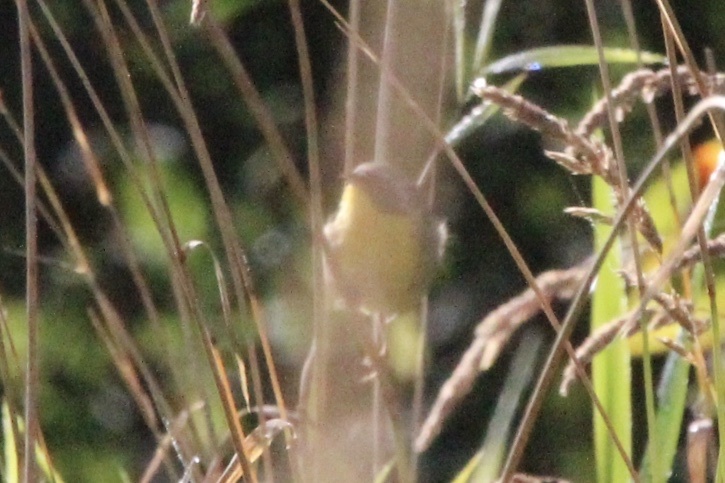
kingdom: Animalia
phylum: Chordata
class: Aves
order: Passeriformes
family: Parulidae
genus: Geothlypis
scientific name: Geothlypis trichas
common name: Common yellowthroat
